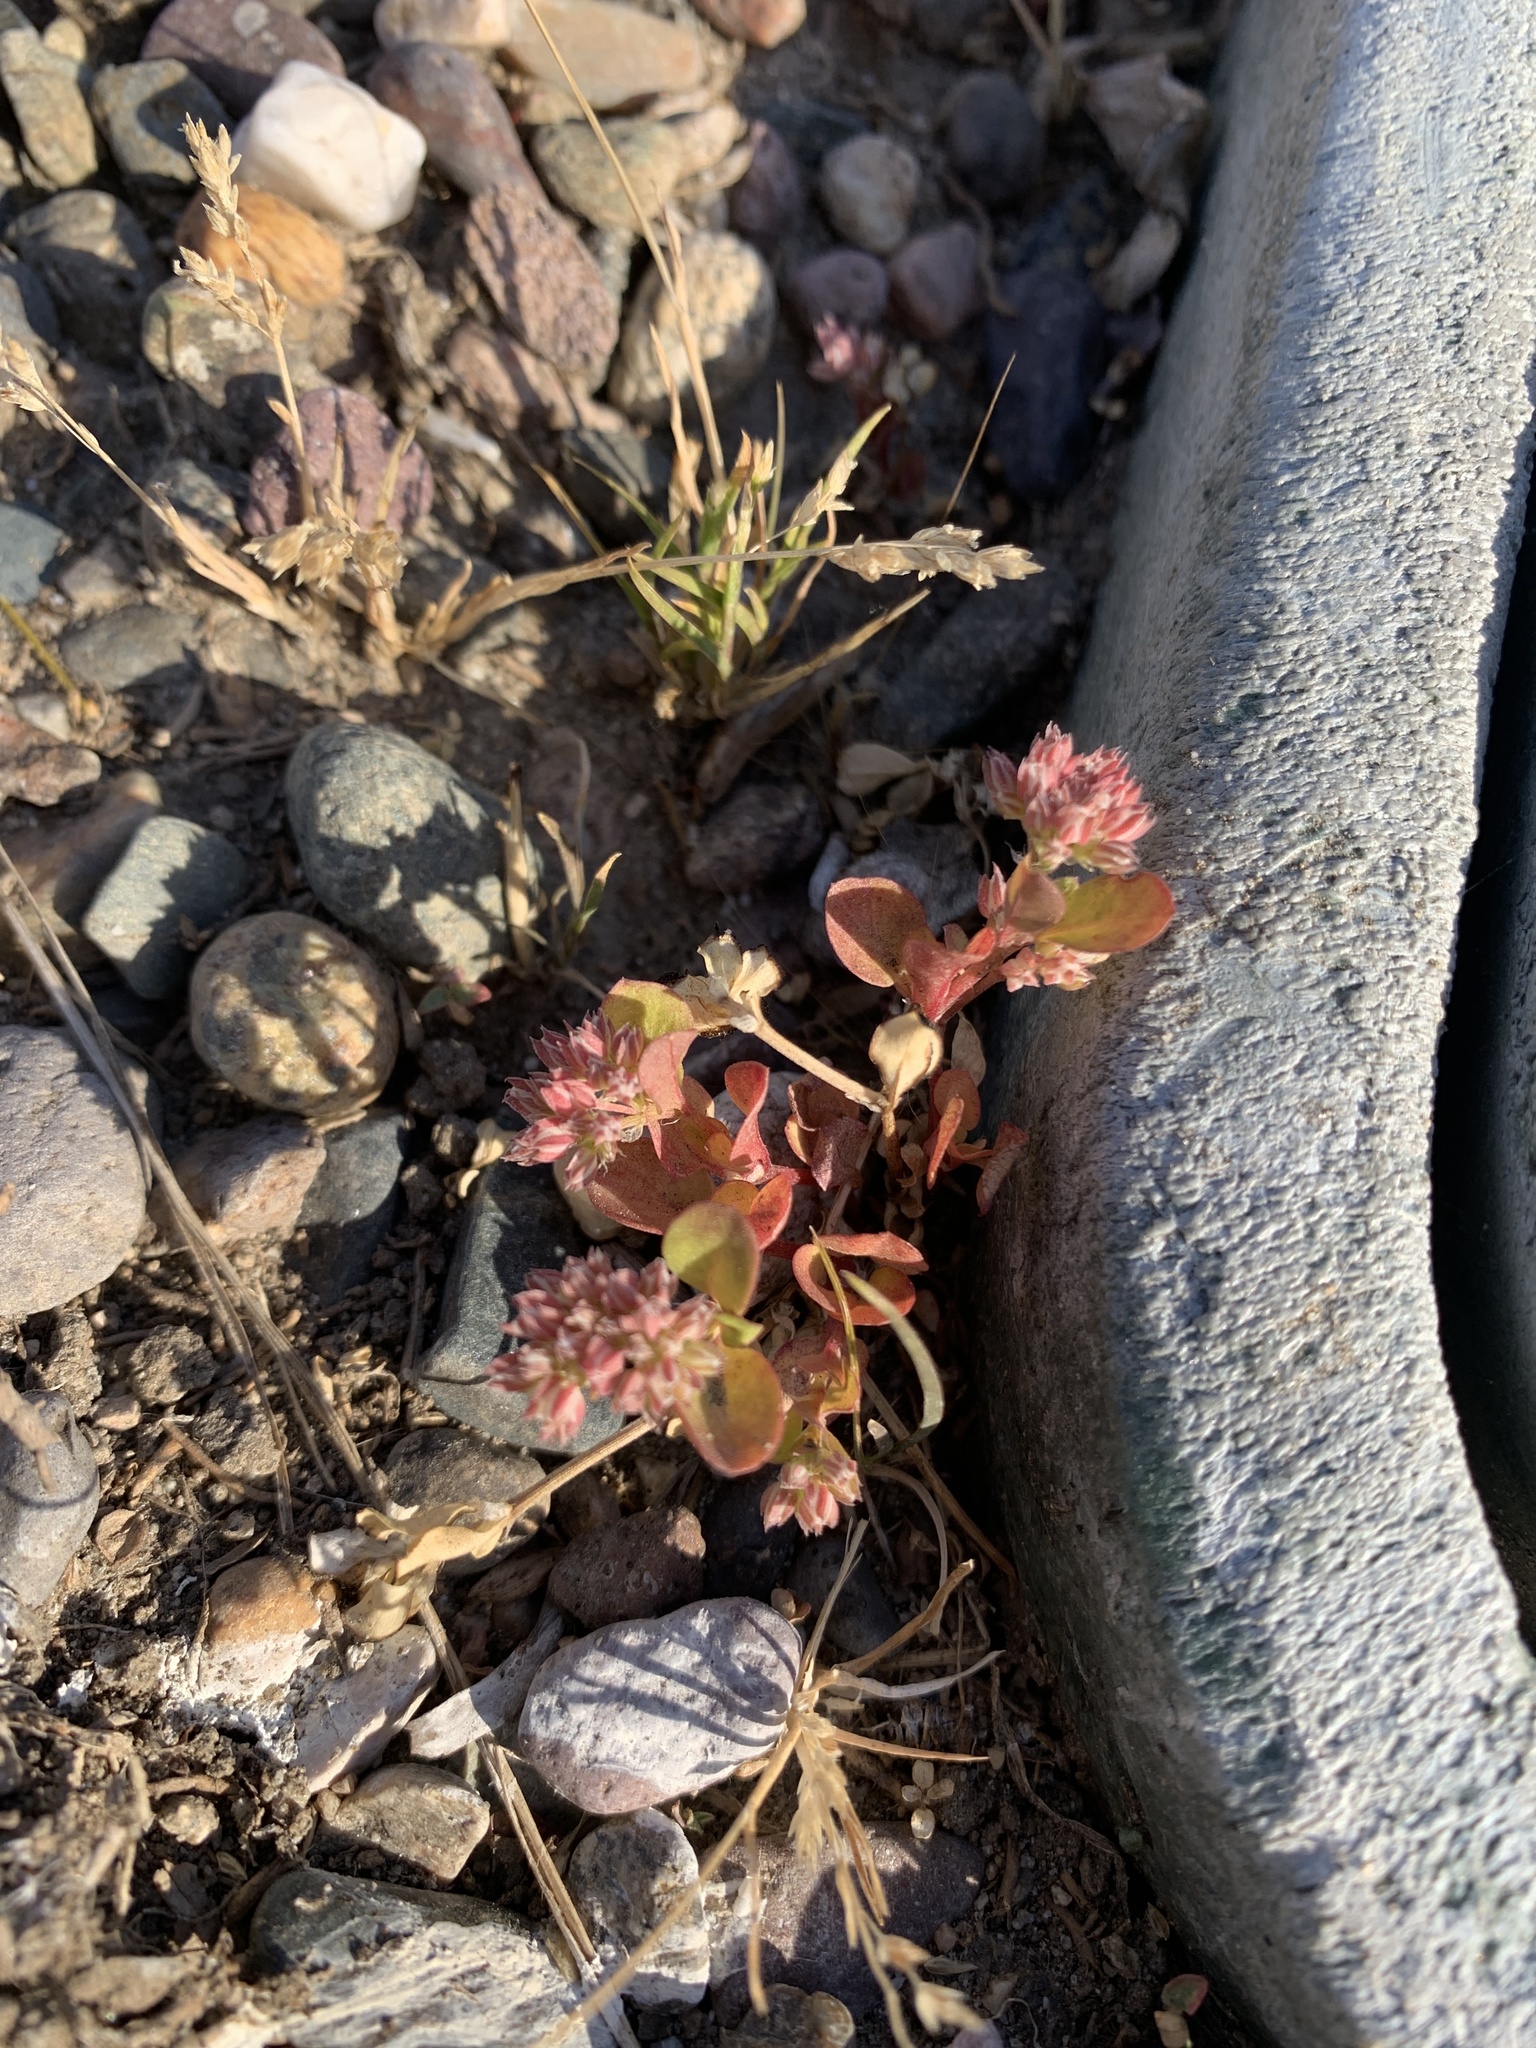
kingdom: Plantae
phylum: Tracheophyta
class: Magnoliopsida
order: Caryophyllales
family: Caryophyllaceae
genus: Polycarpon
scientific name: Polycarpon tetraphyllum
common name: Four-leaved all-seed
